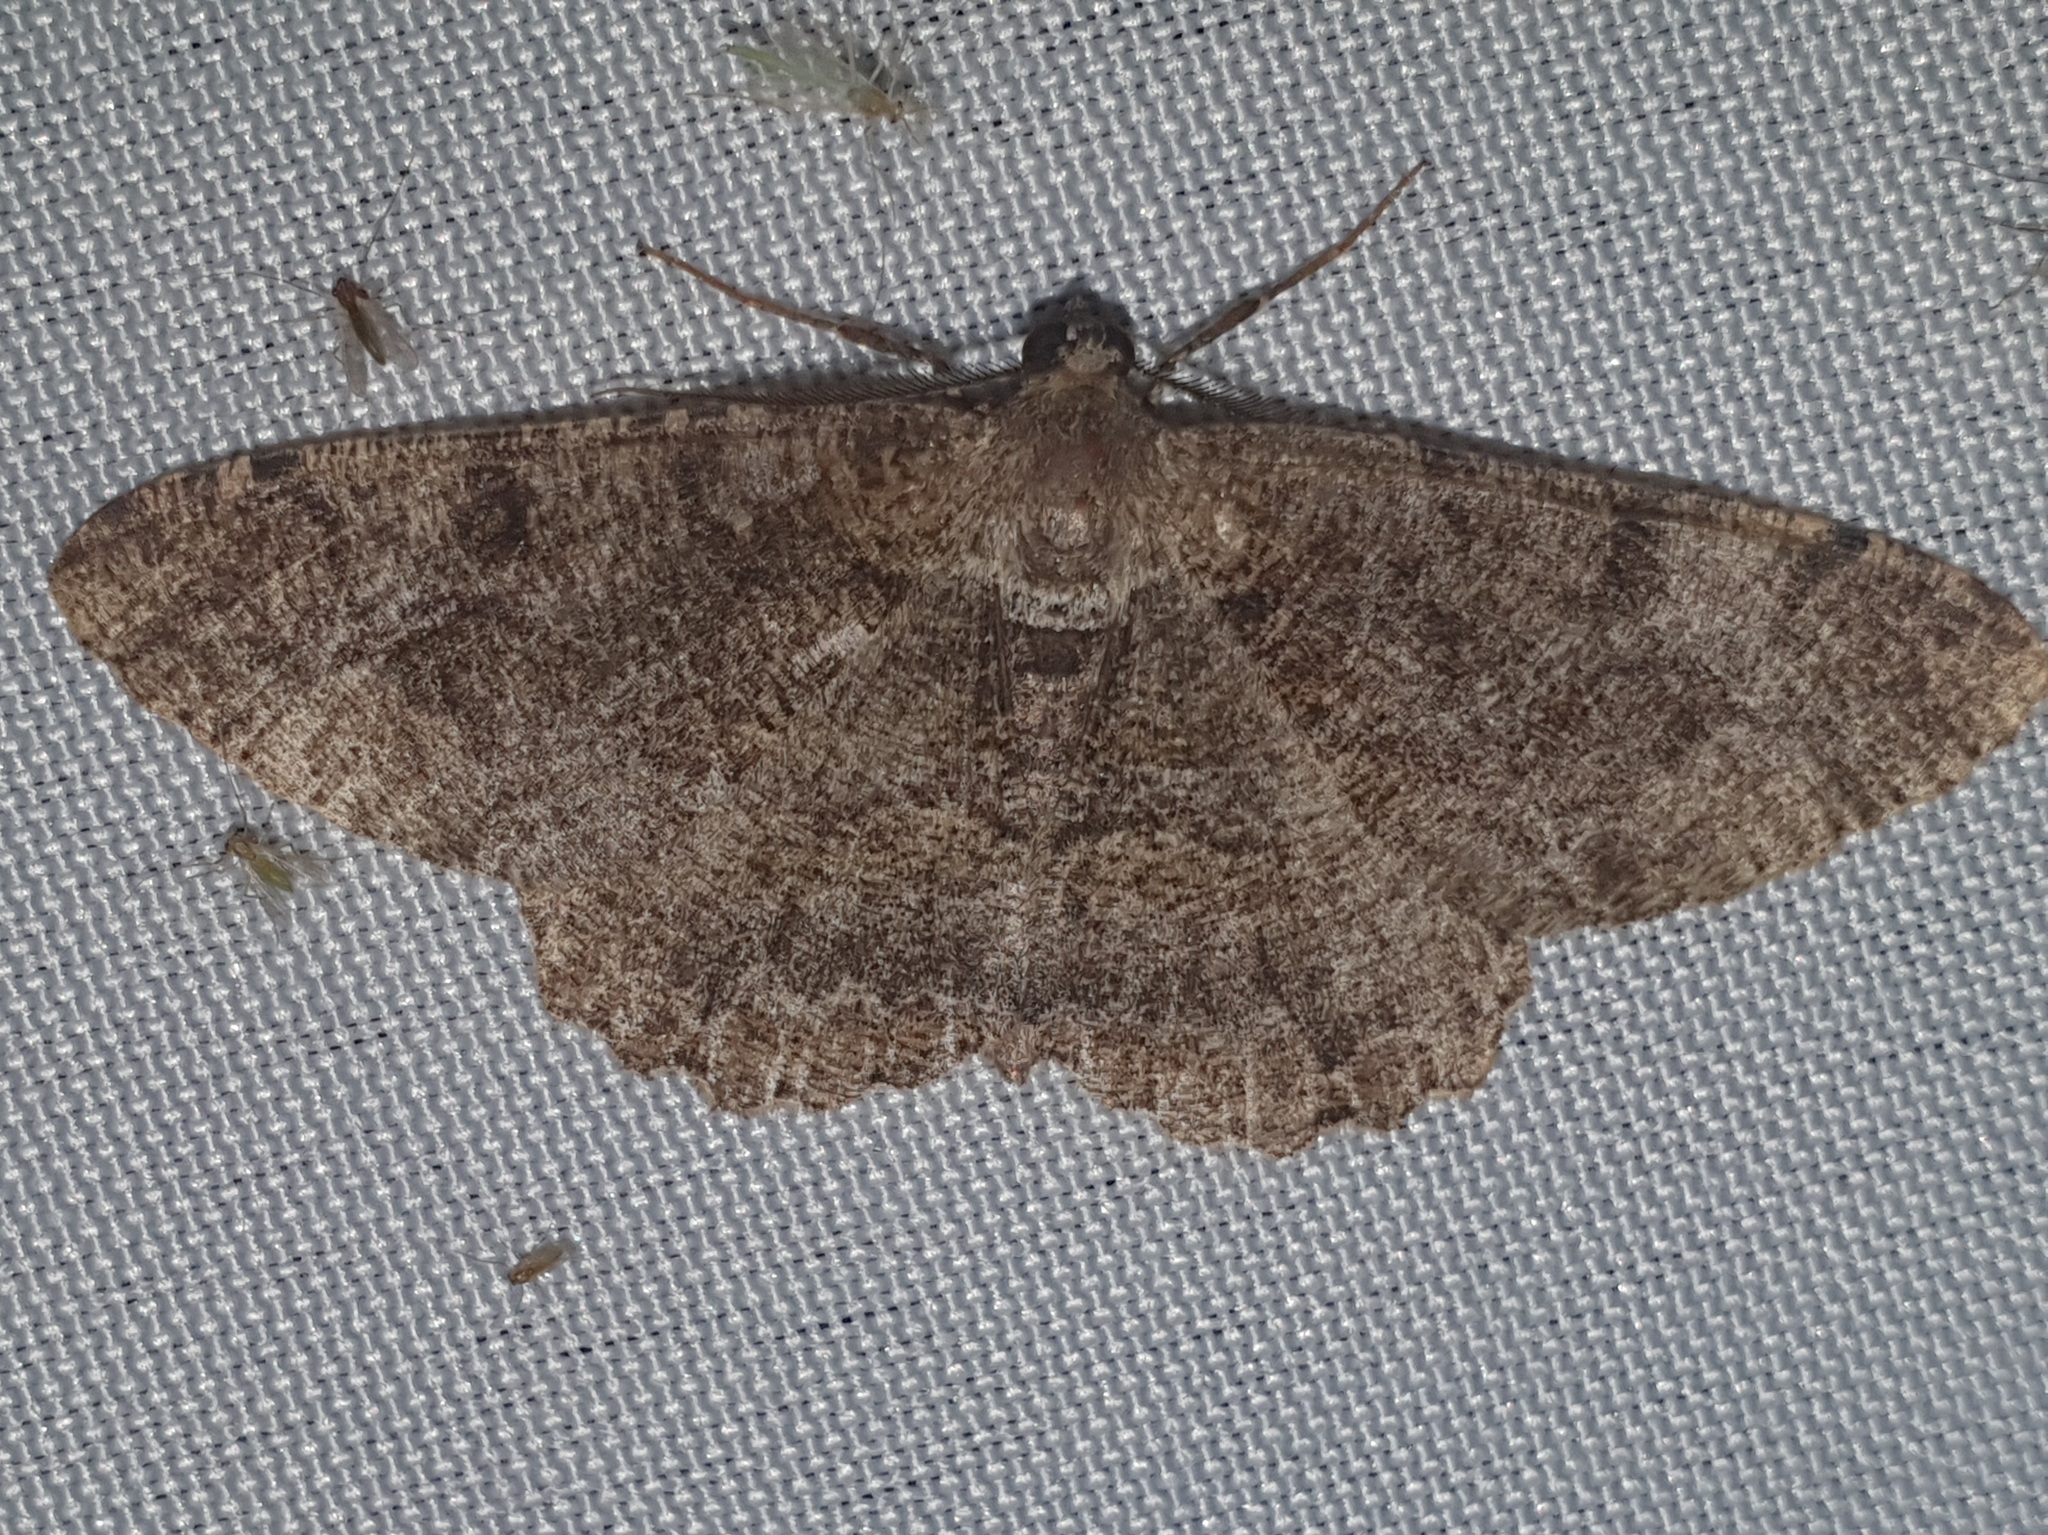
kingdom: Animalia
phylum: Arthropoda
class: Insecta
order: Lepidoptera
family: Geometridae
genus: Alcis
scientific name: Alcis repandata
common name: Mottled beauty
